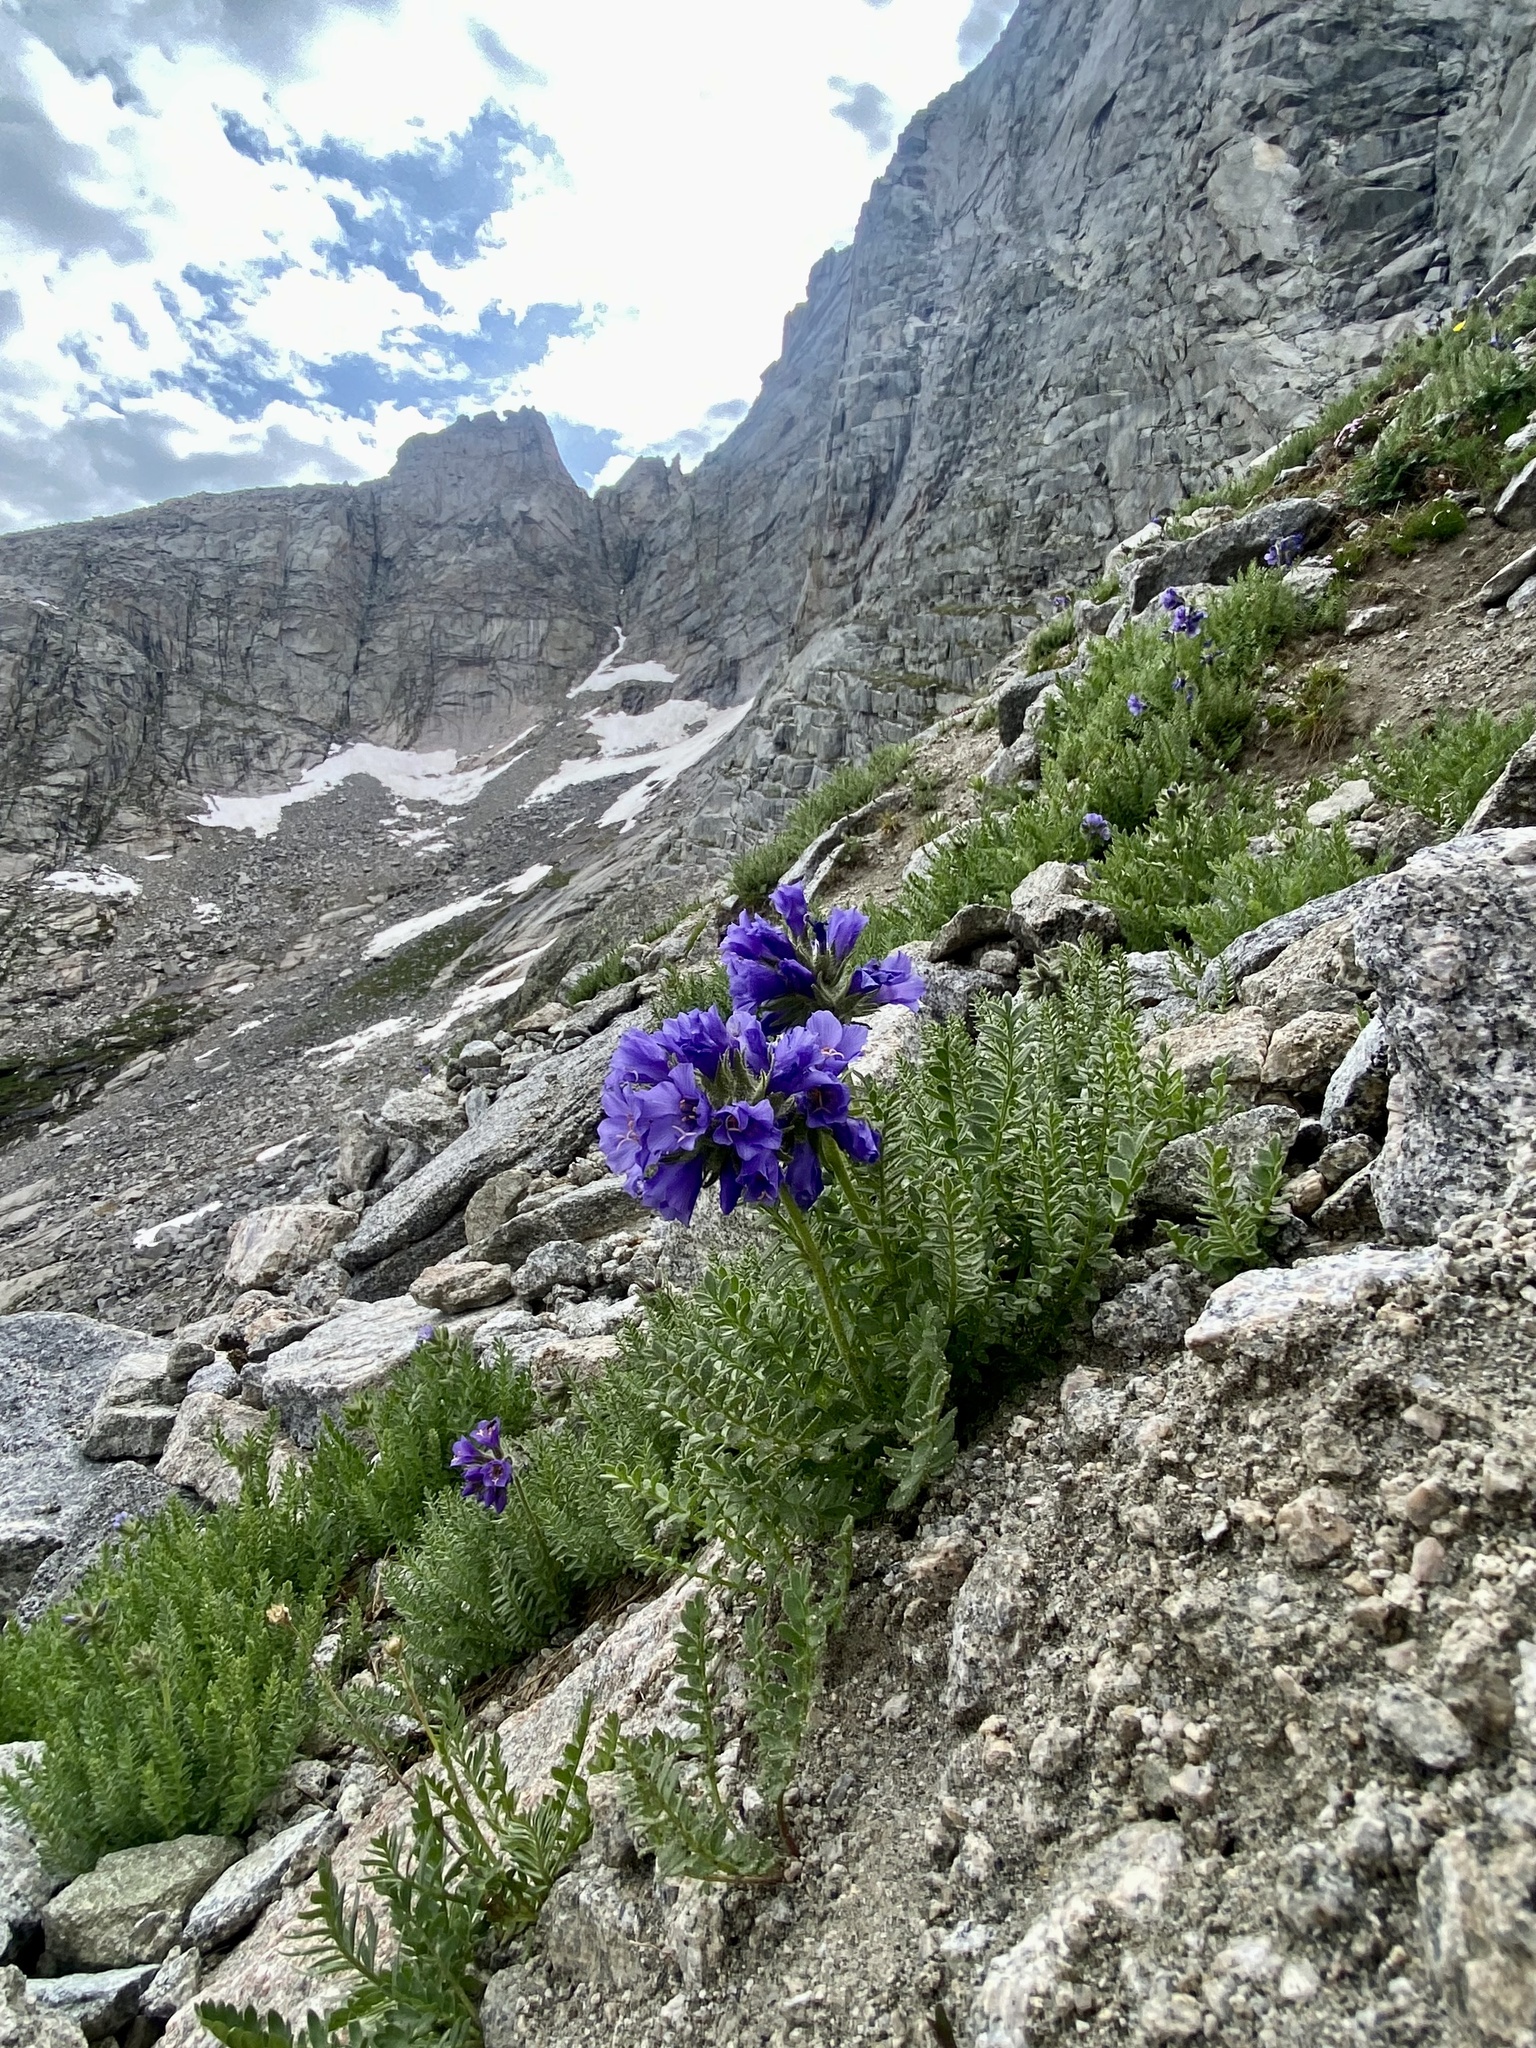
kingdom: Plantae
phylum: Tracheophyta
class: Magnoliopsida
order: Ericales
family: Polemoniaceae
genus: Polemonium
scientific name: Polemonium viscosum
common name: Skunk jacob's-ladder
